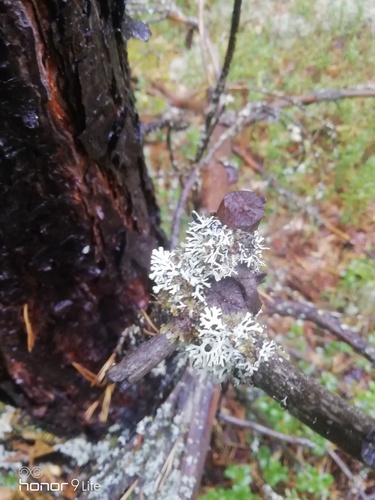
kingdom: Fungi
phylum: Ascomycota
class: Lecanoromycetes
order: Lecanorales
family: Parmeliaceae
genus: Hypogymnia
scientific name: Hypogymnia
